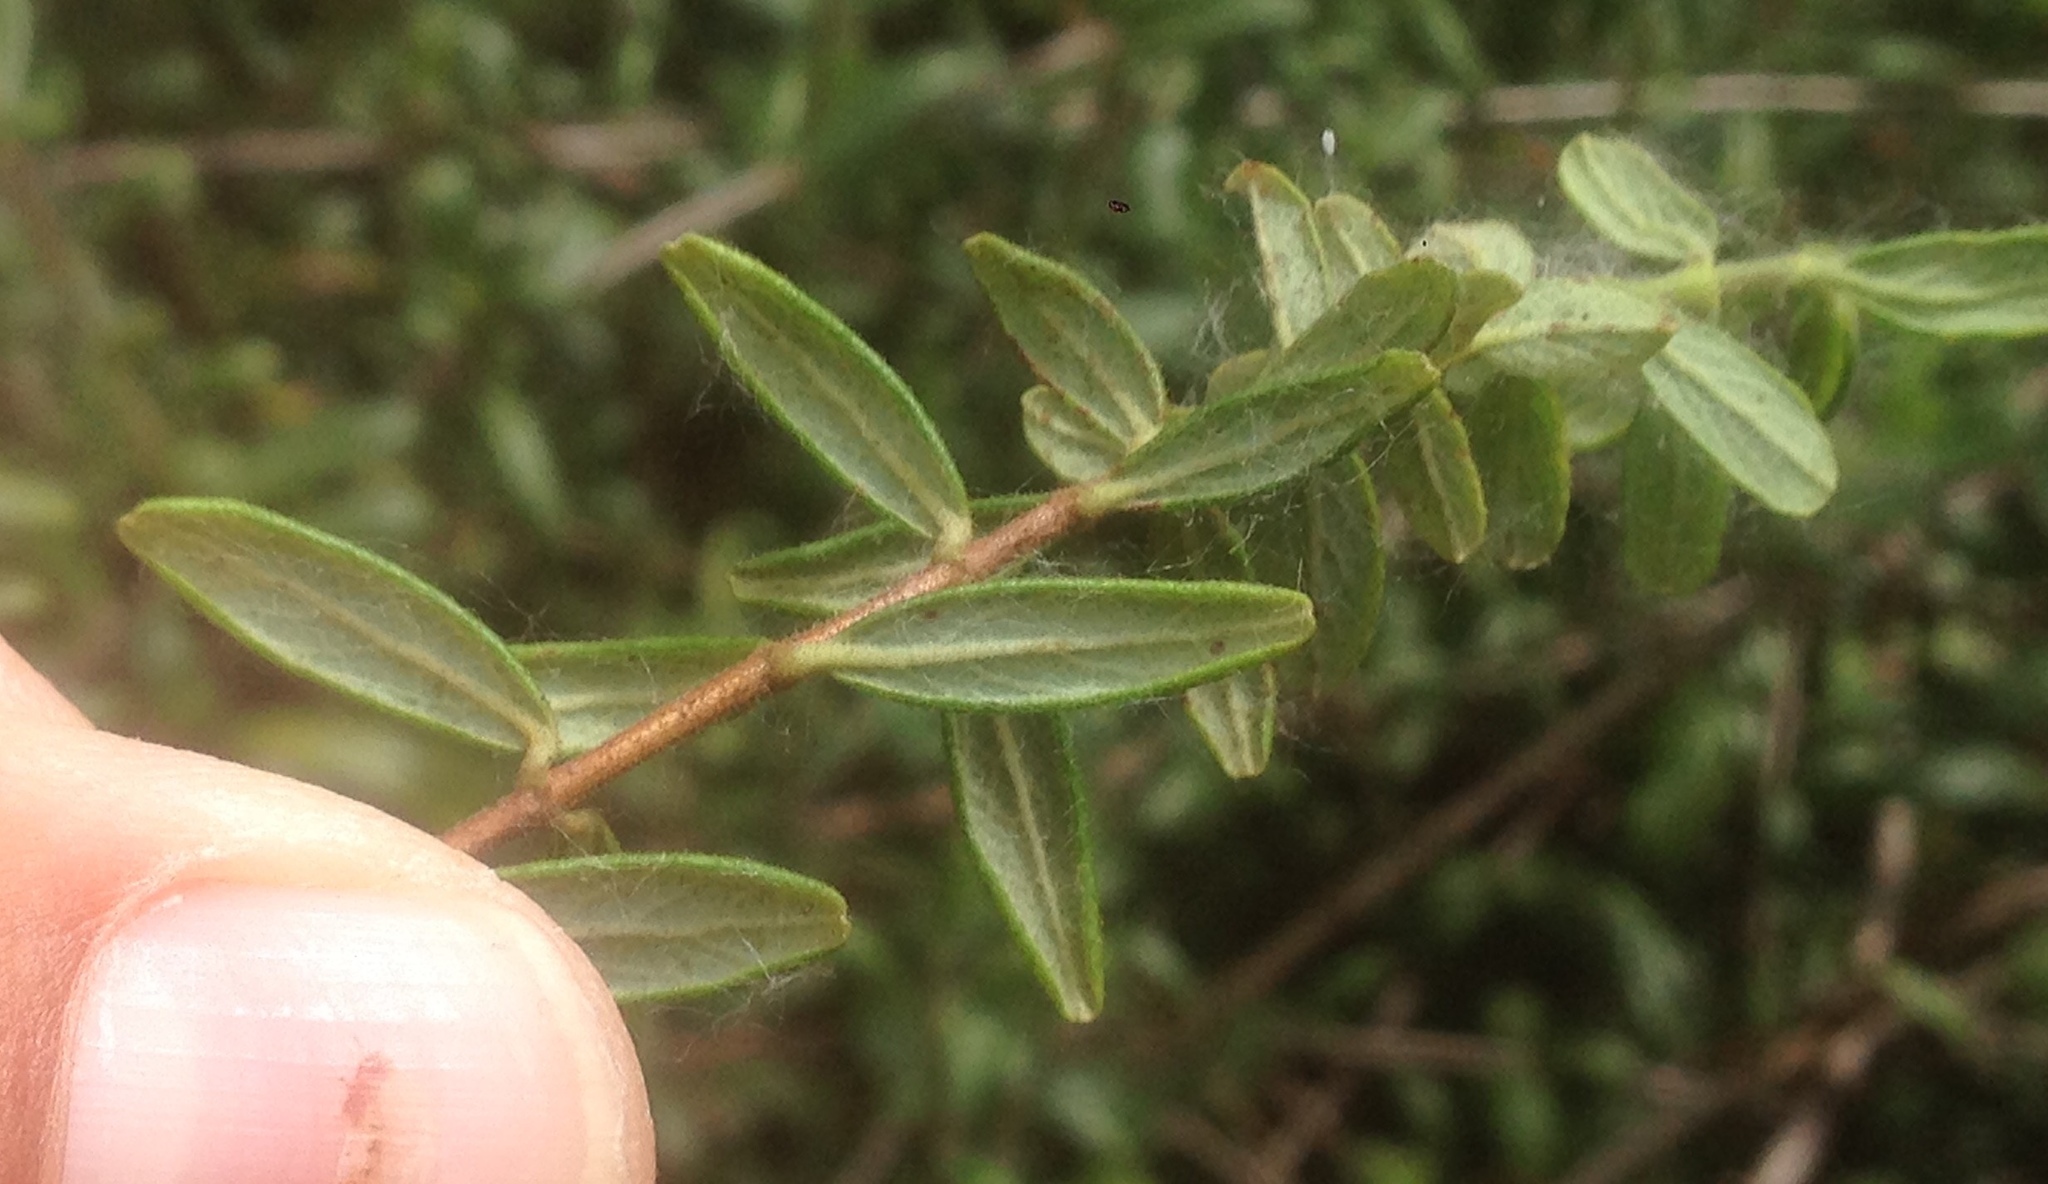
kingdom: Plantae
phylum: Tracheophyta
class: Magnoliopsida
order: Dipsacales
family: Caprifoliaceae
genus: Lonicera
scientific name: Lonicera subspicata
